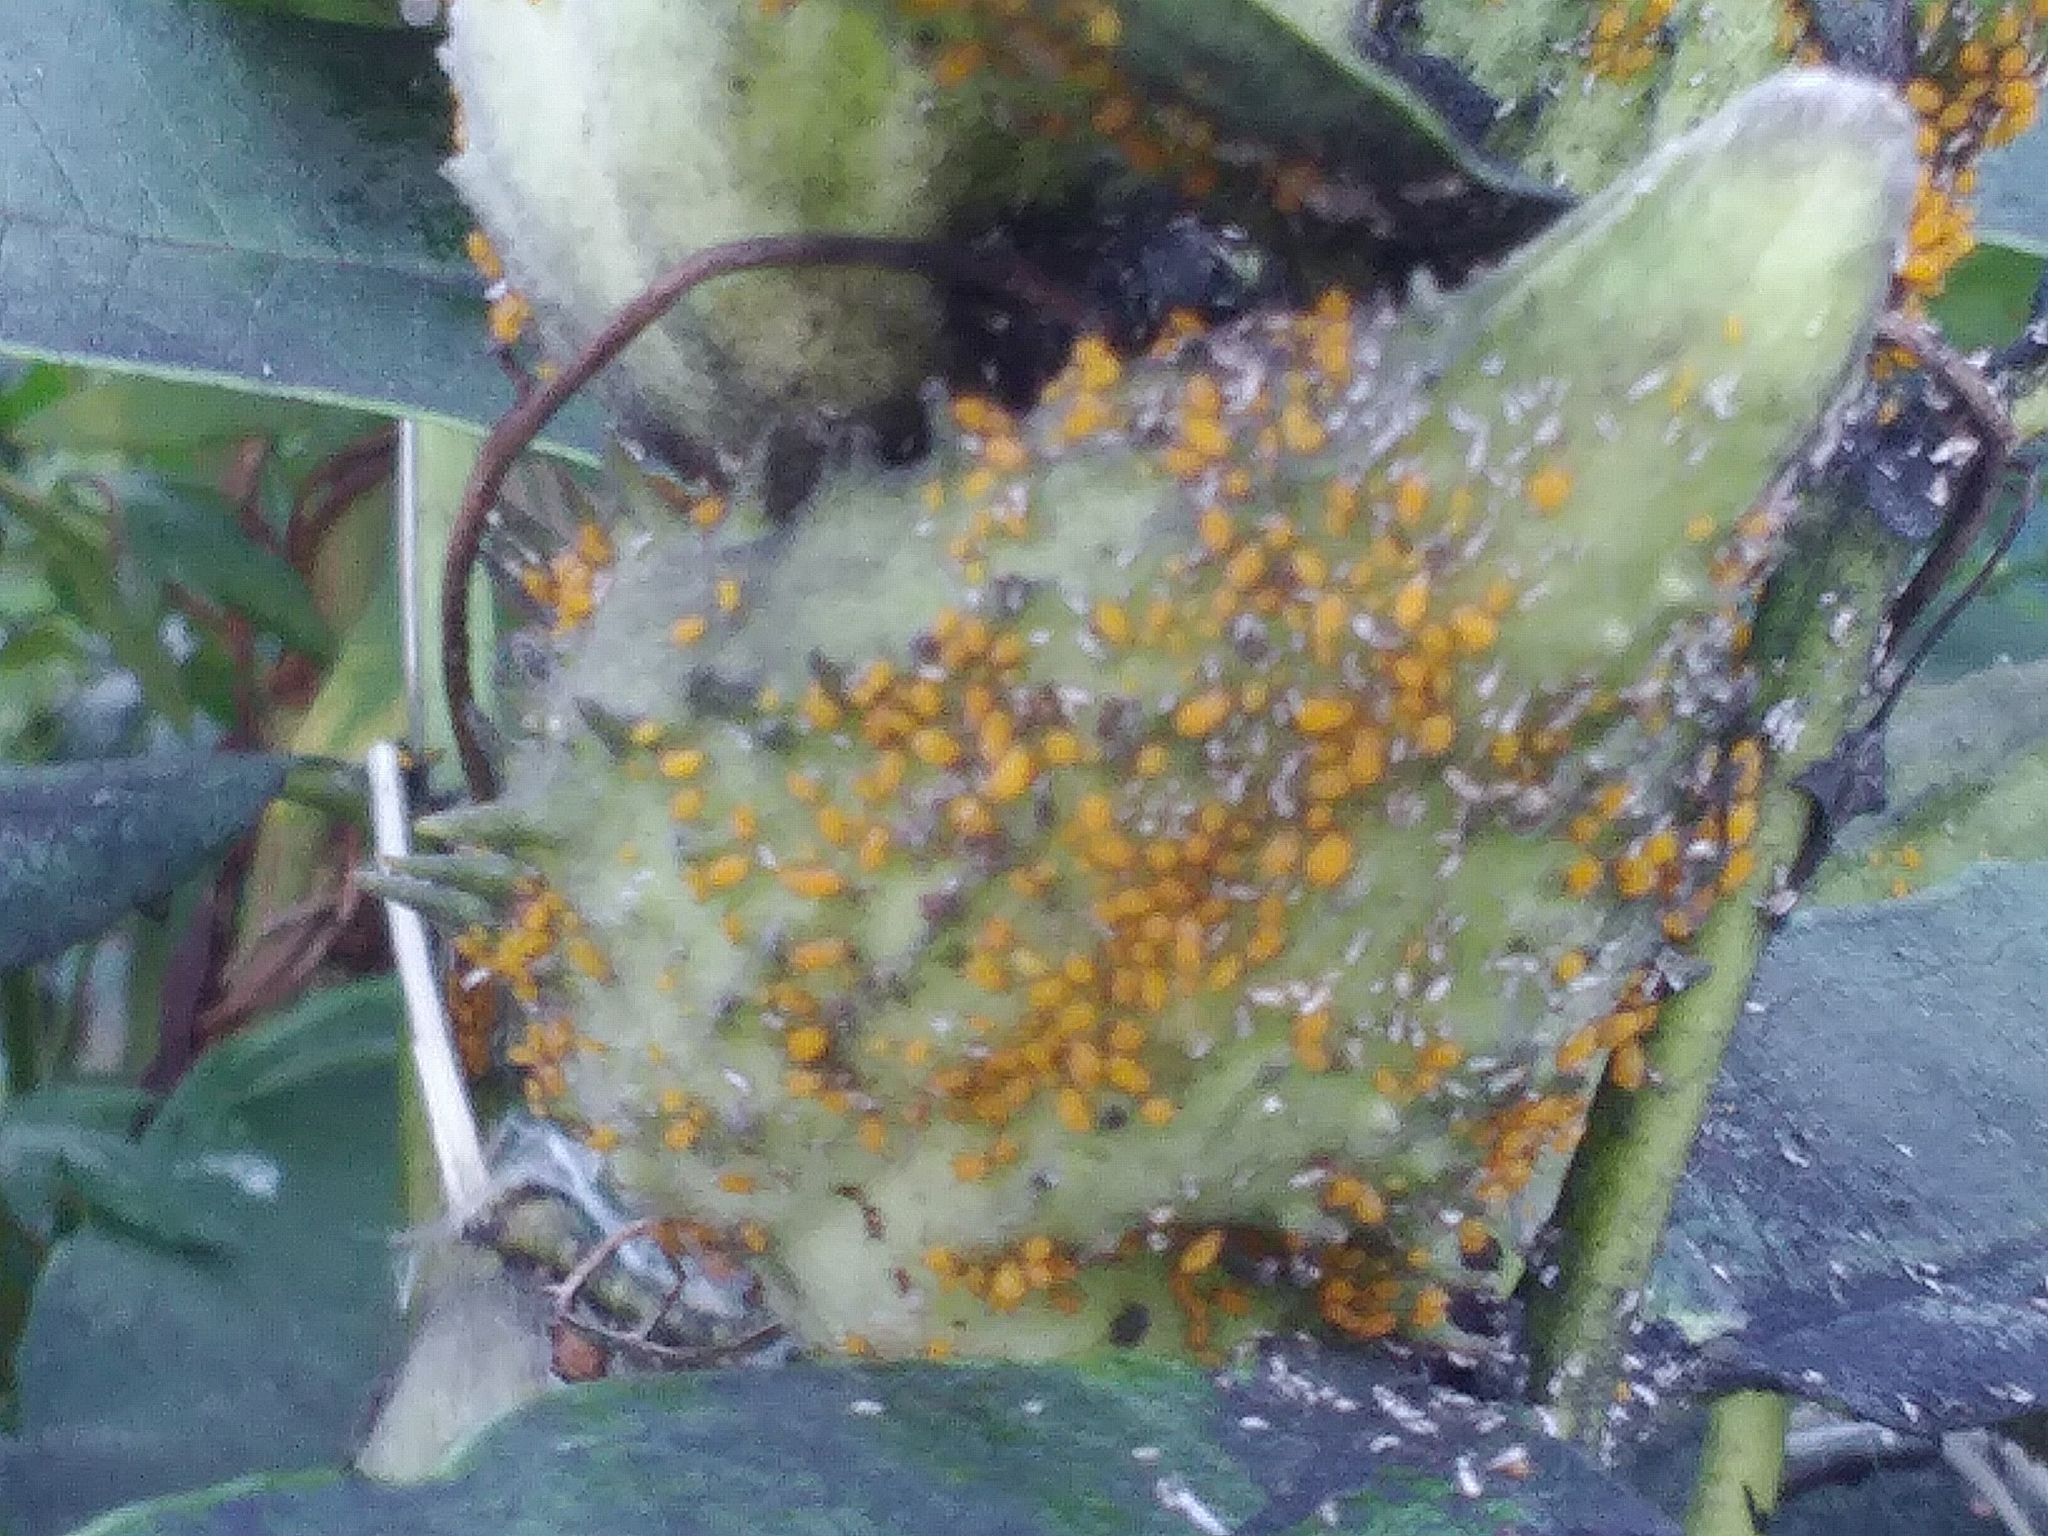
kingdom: Animalia
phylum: Arthropoda
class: Insecta
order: Hemiptera
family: Aphididae
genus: Aphis
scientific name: Aphis nerii
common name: Oleander aphid
